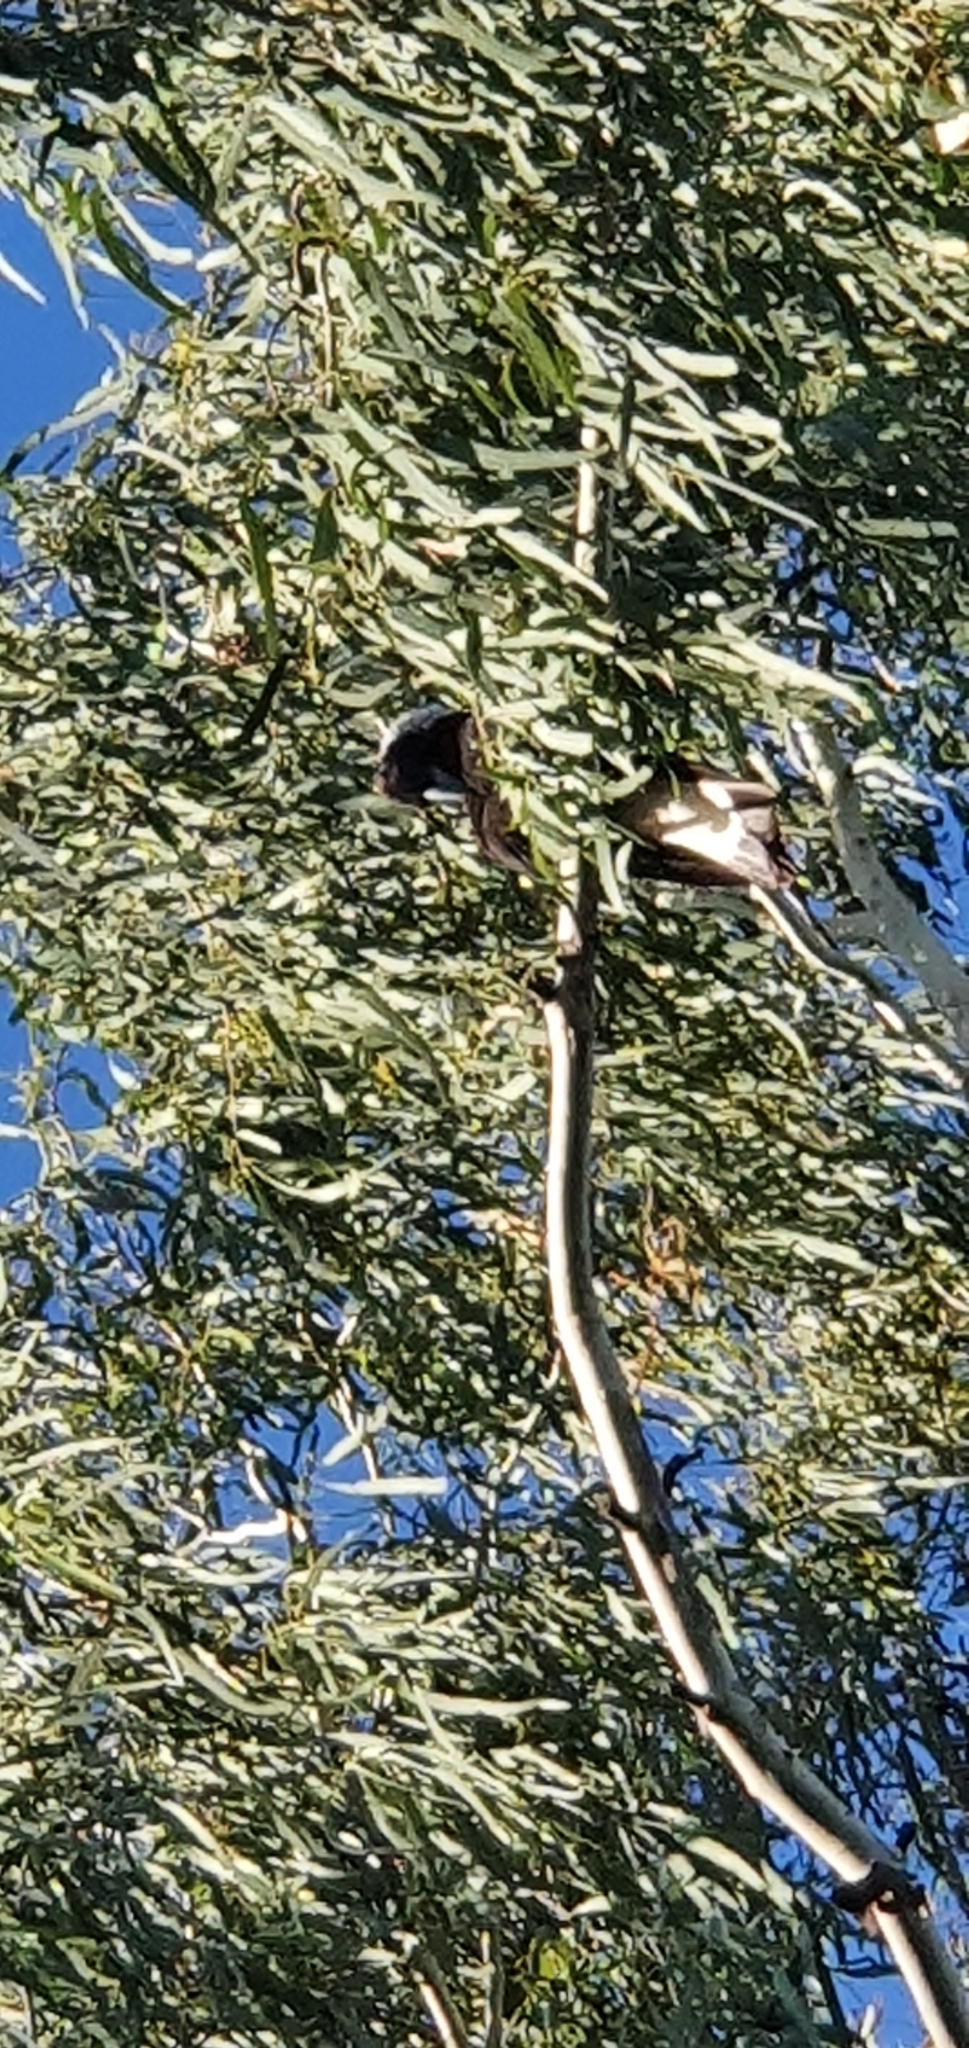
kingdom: Animalia
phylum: Chordata
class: Aves
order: Passeriformes
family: Cracticidae
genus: Gymnorhina
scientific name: Gymnorhina tibicen
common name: Australian magpie
